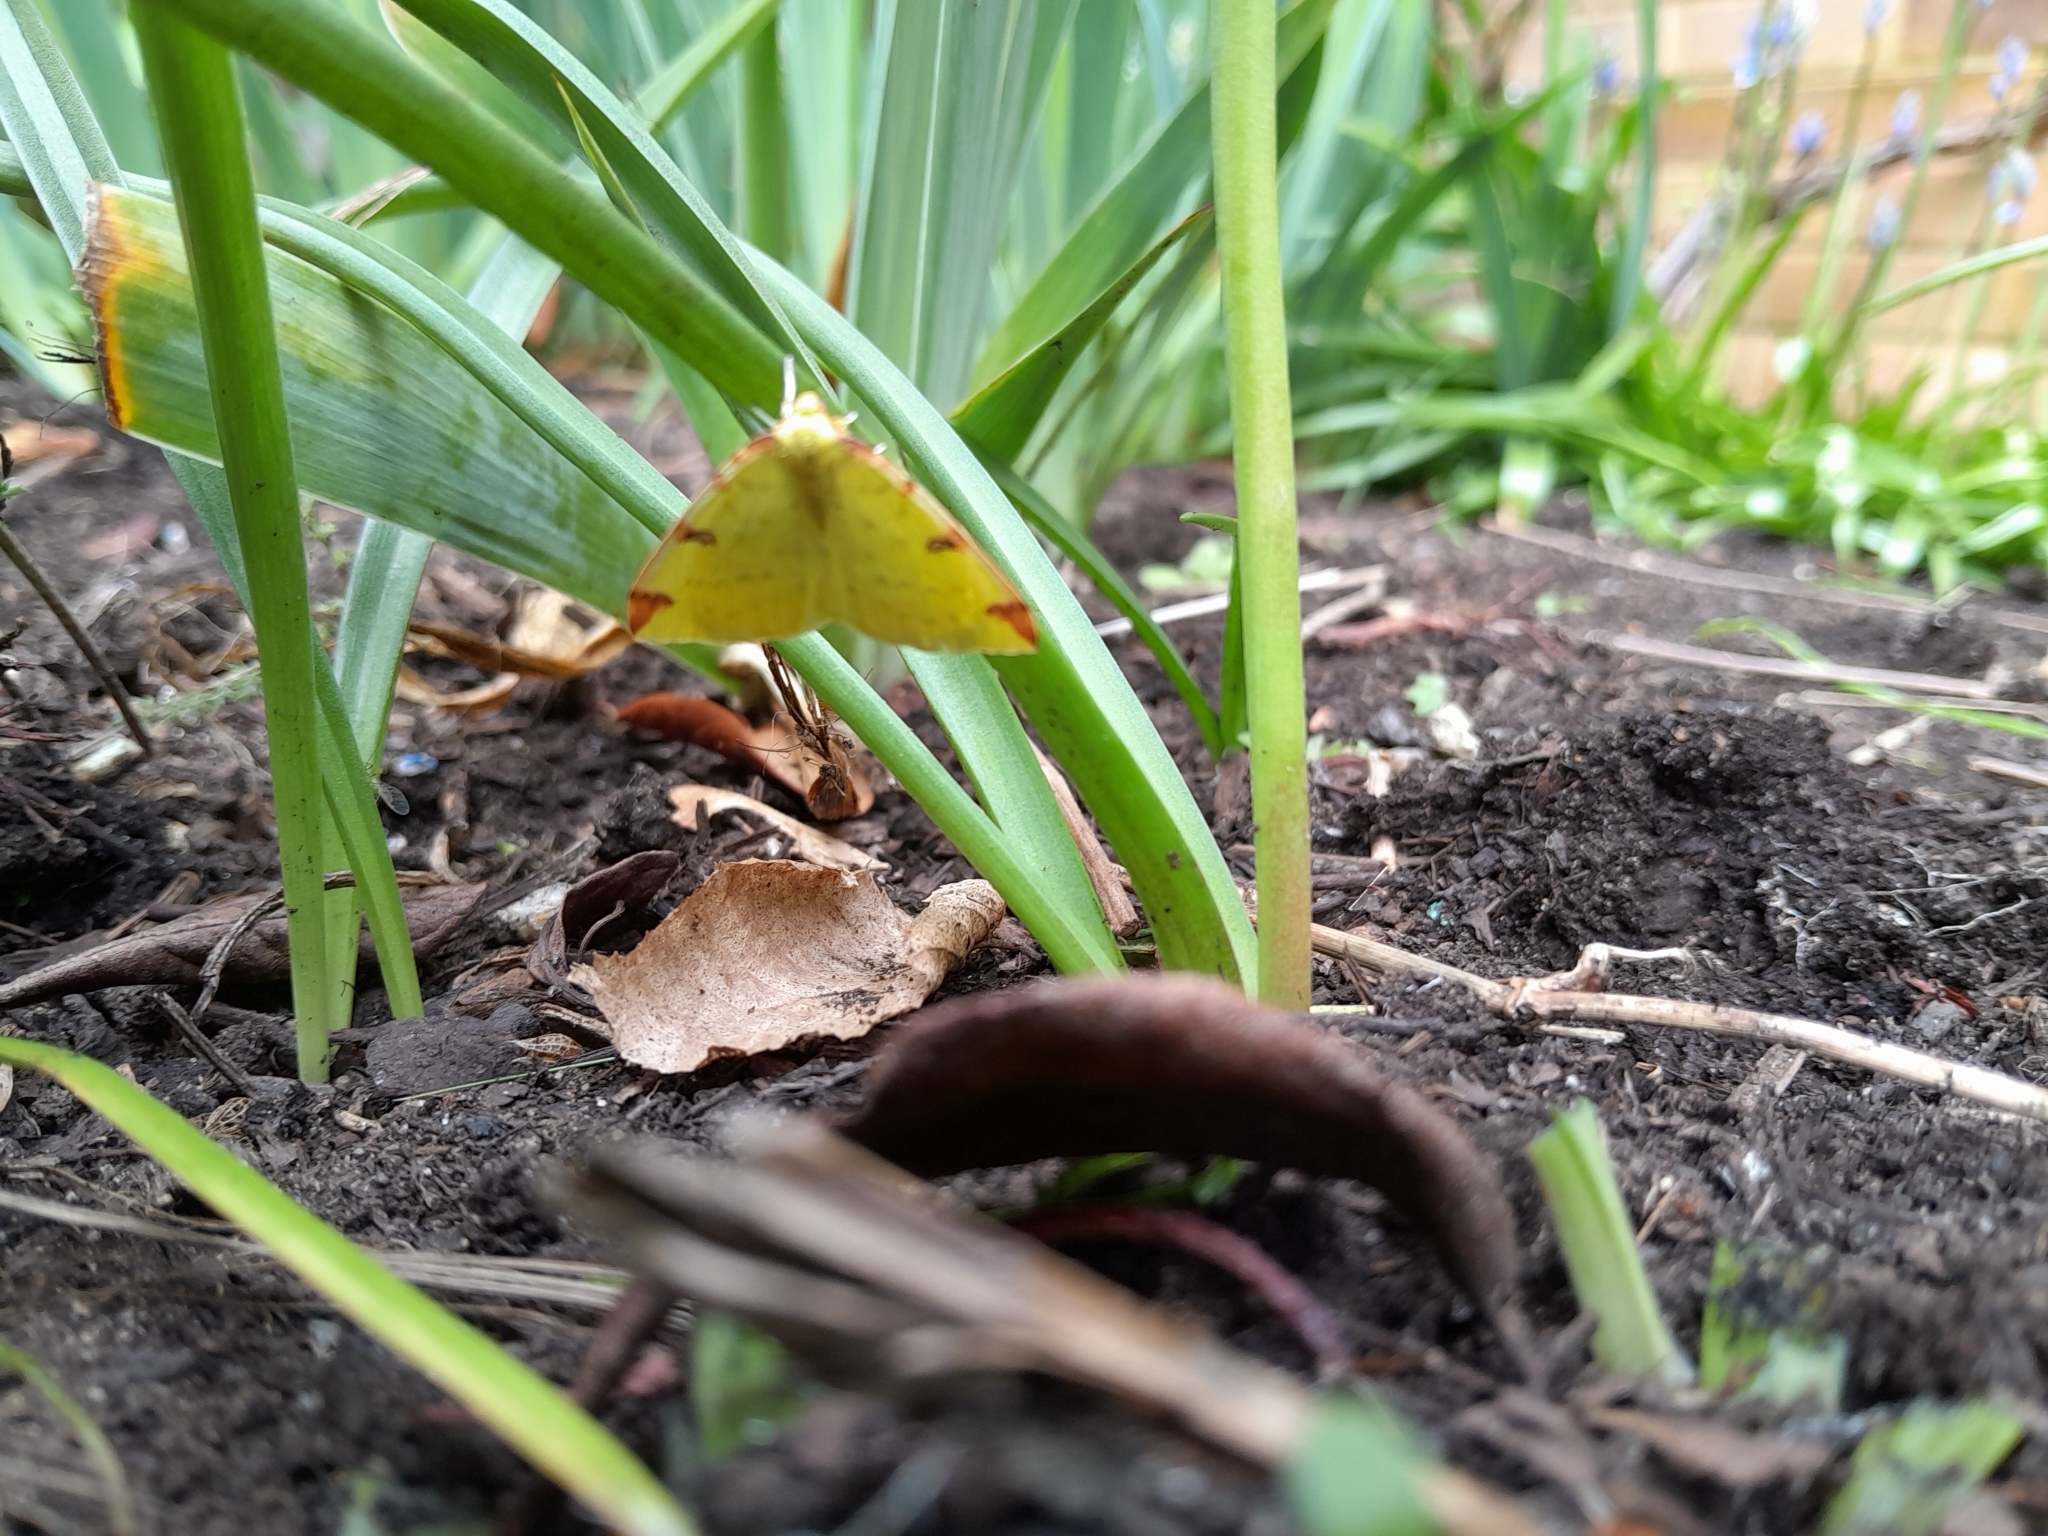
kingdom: Animalia
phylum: Arthropoda
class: Insecta
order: Lepidoptera
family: Geometridae
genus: Opisthograptis
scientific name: Opisthograptis luteolata
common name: Brimstone moth
